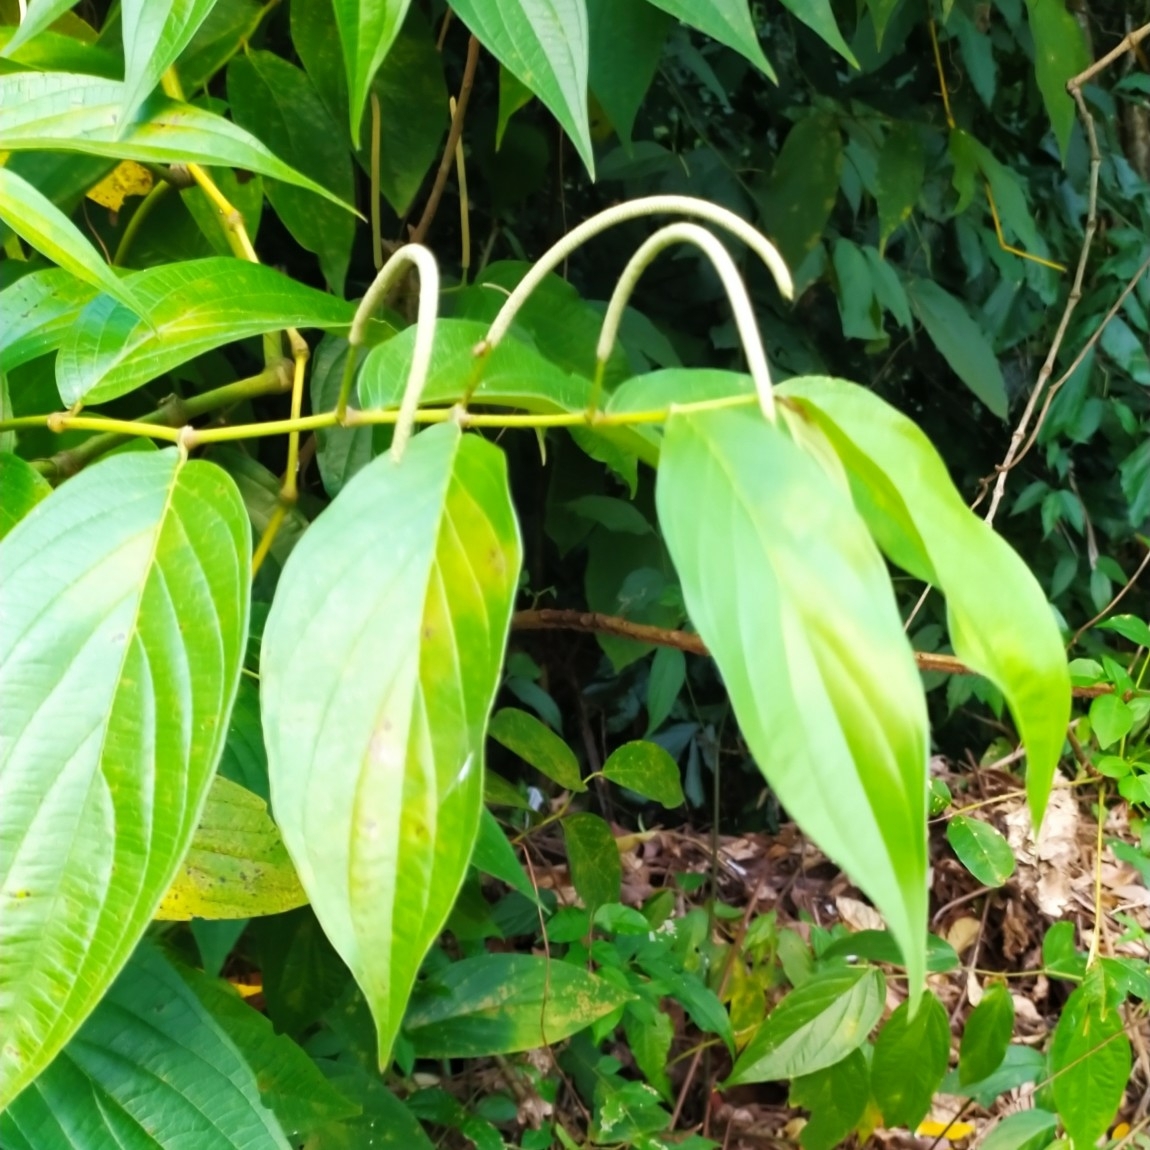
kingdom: Plantae
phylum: Tracheophyta
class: Magnoliopsida
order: Piperales
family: Piperaceae
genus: Piper
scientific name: Piper aduncum
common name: Spiked pepper
